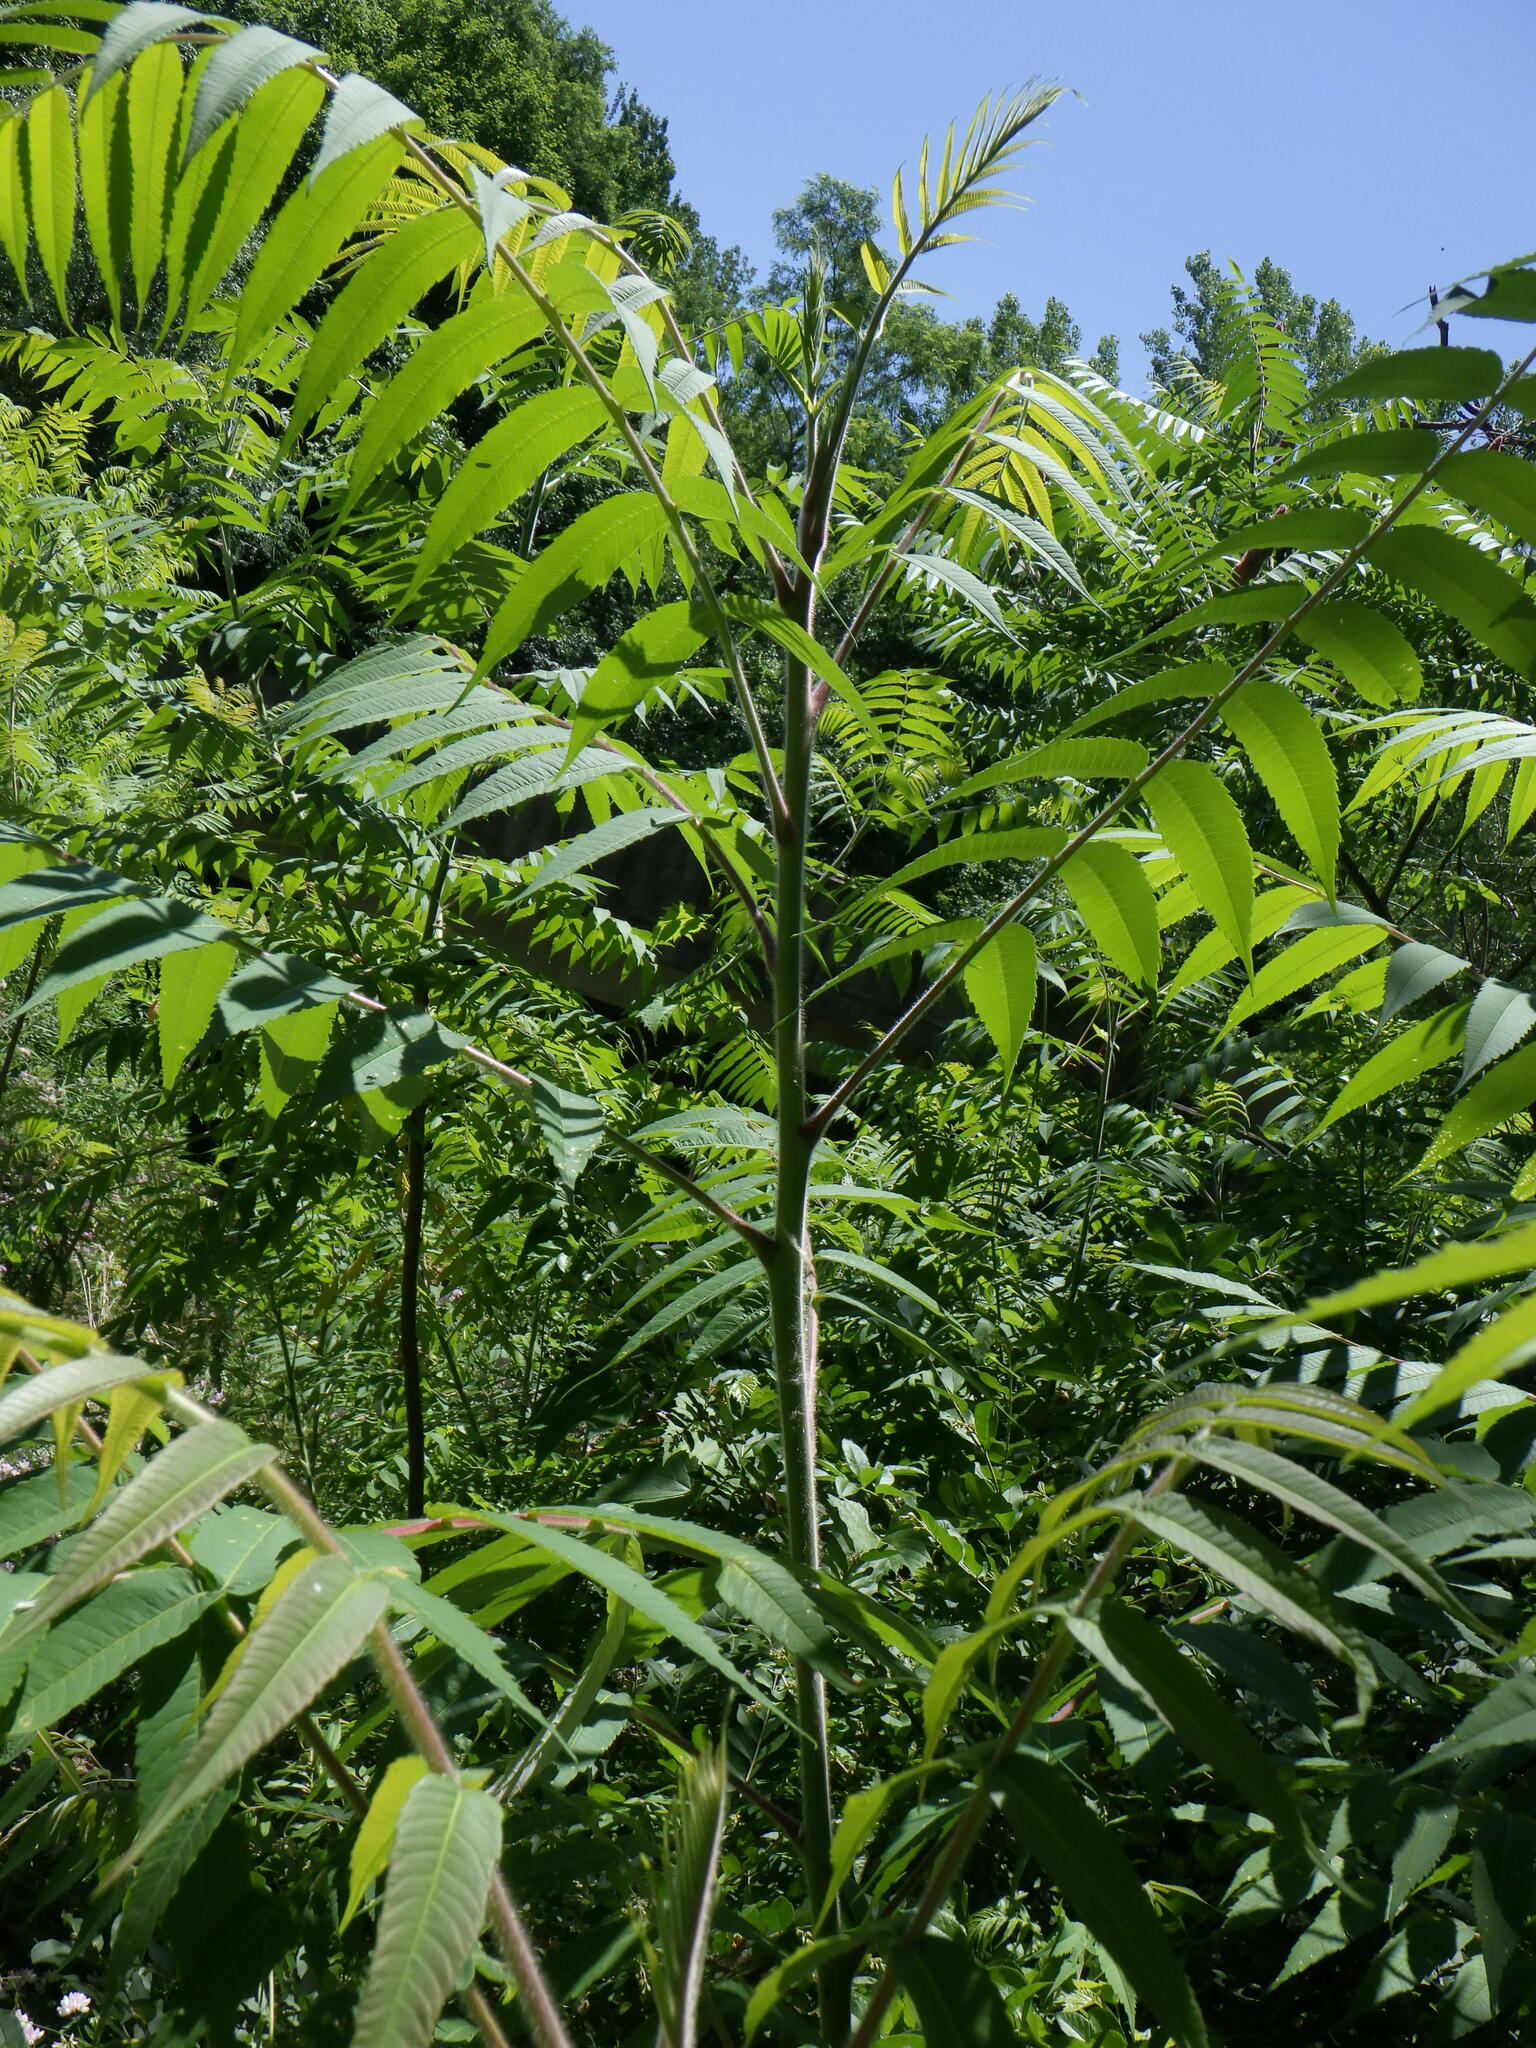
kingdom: Plantae
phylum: Tracheophyta
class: Magnoliopsida
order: Sapindales
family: Anacardiaceae
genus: Rhus
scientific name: Rhus typhina
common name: Staghorn sumac
